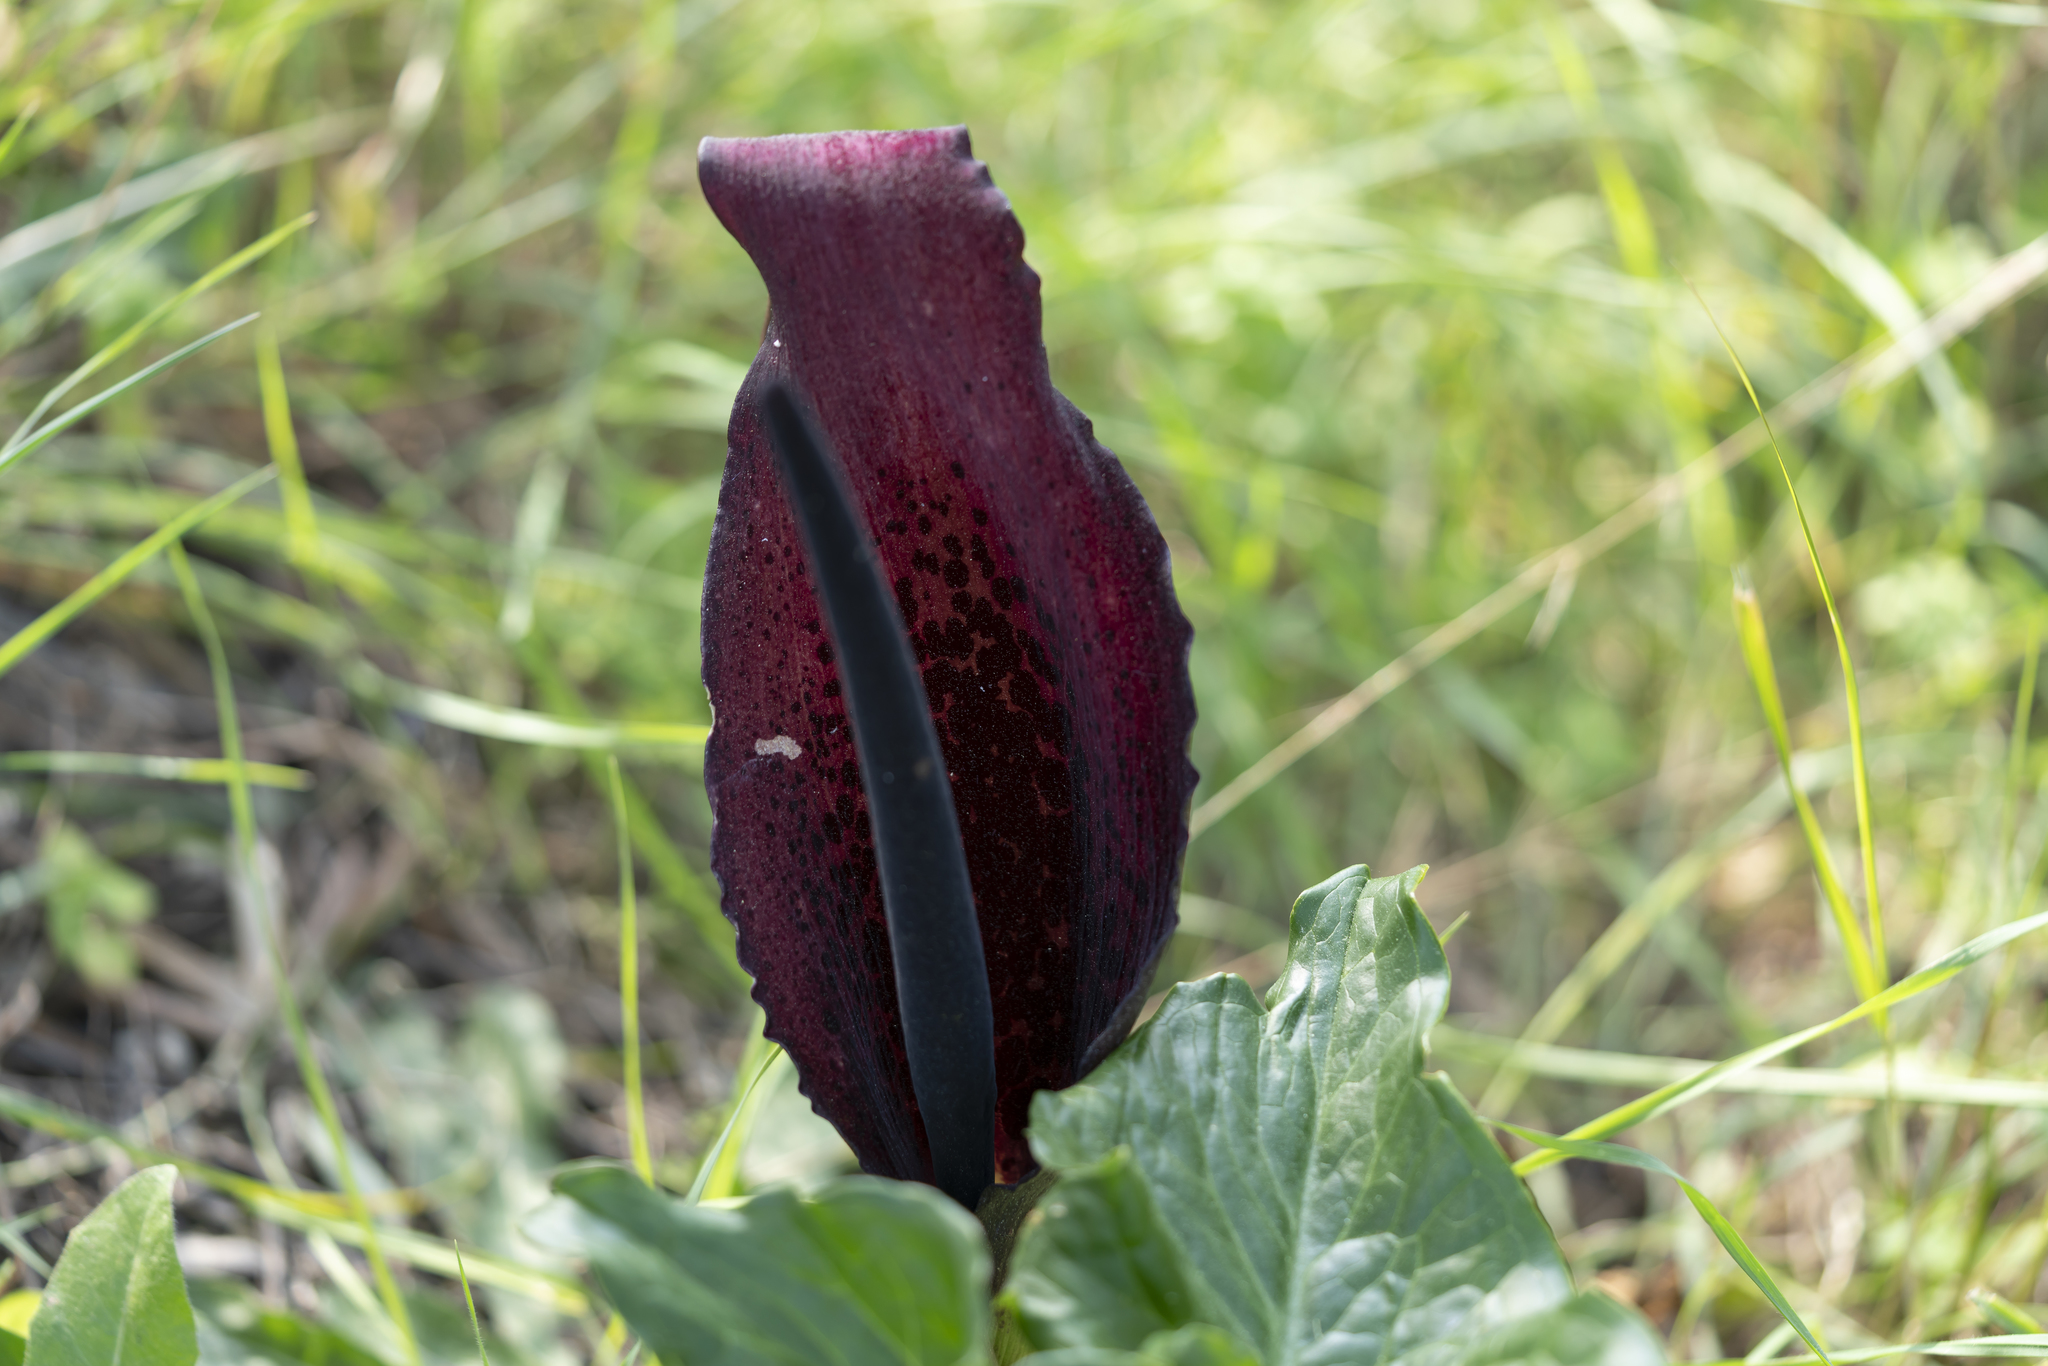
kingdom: Plantae
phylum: Tracheophyta
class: Liliopsida
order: Alismatales
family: Araceae
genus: Arum
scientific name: Arum dioscoridis
